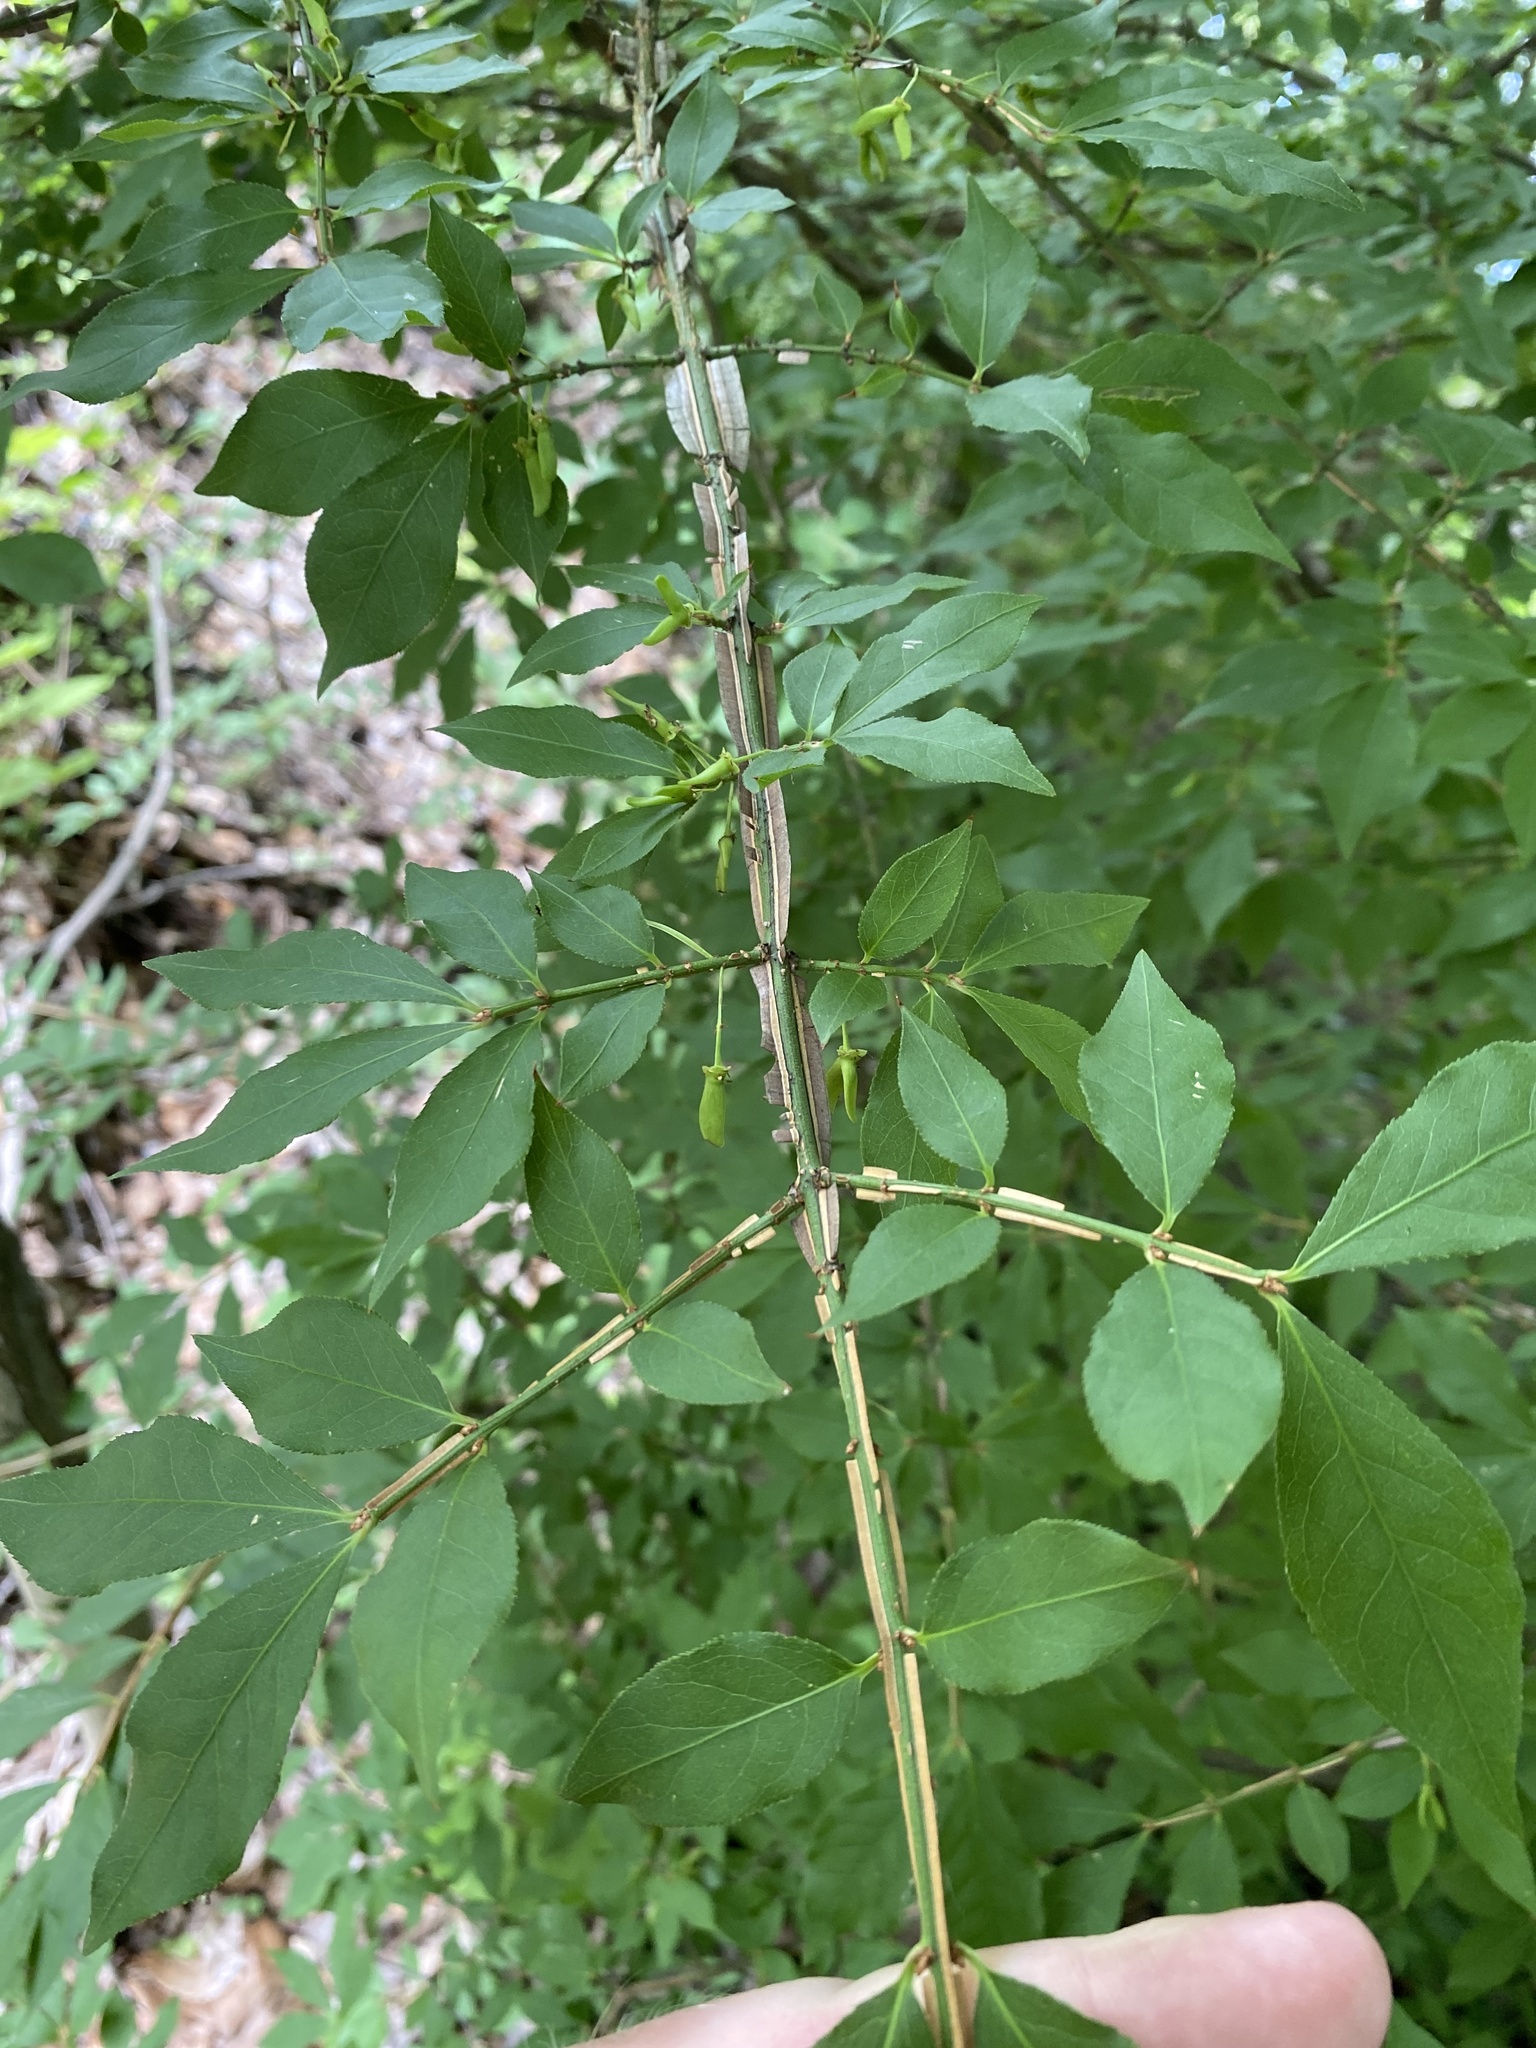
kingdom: Plantae
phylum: Tracheophyta
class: Magnoliopsida
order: Celastrales
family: Celastraceae
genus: Euonymus
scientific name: Euonymus alatus
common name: Winged euonymus
